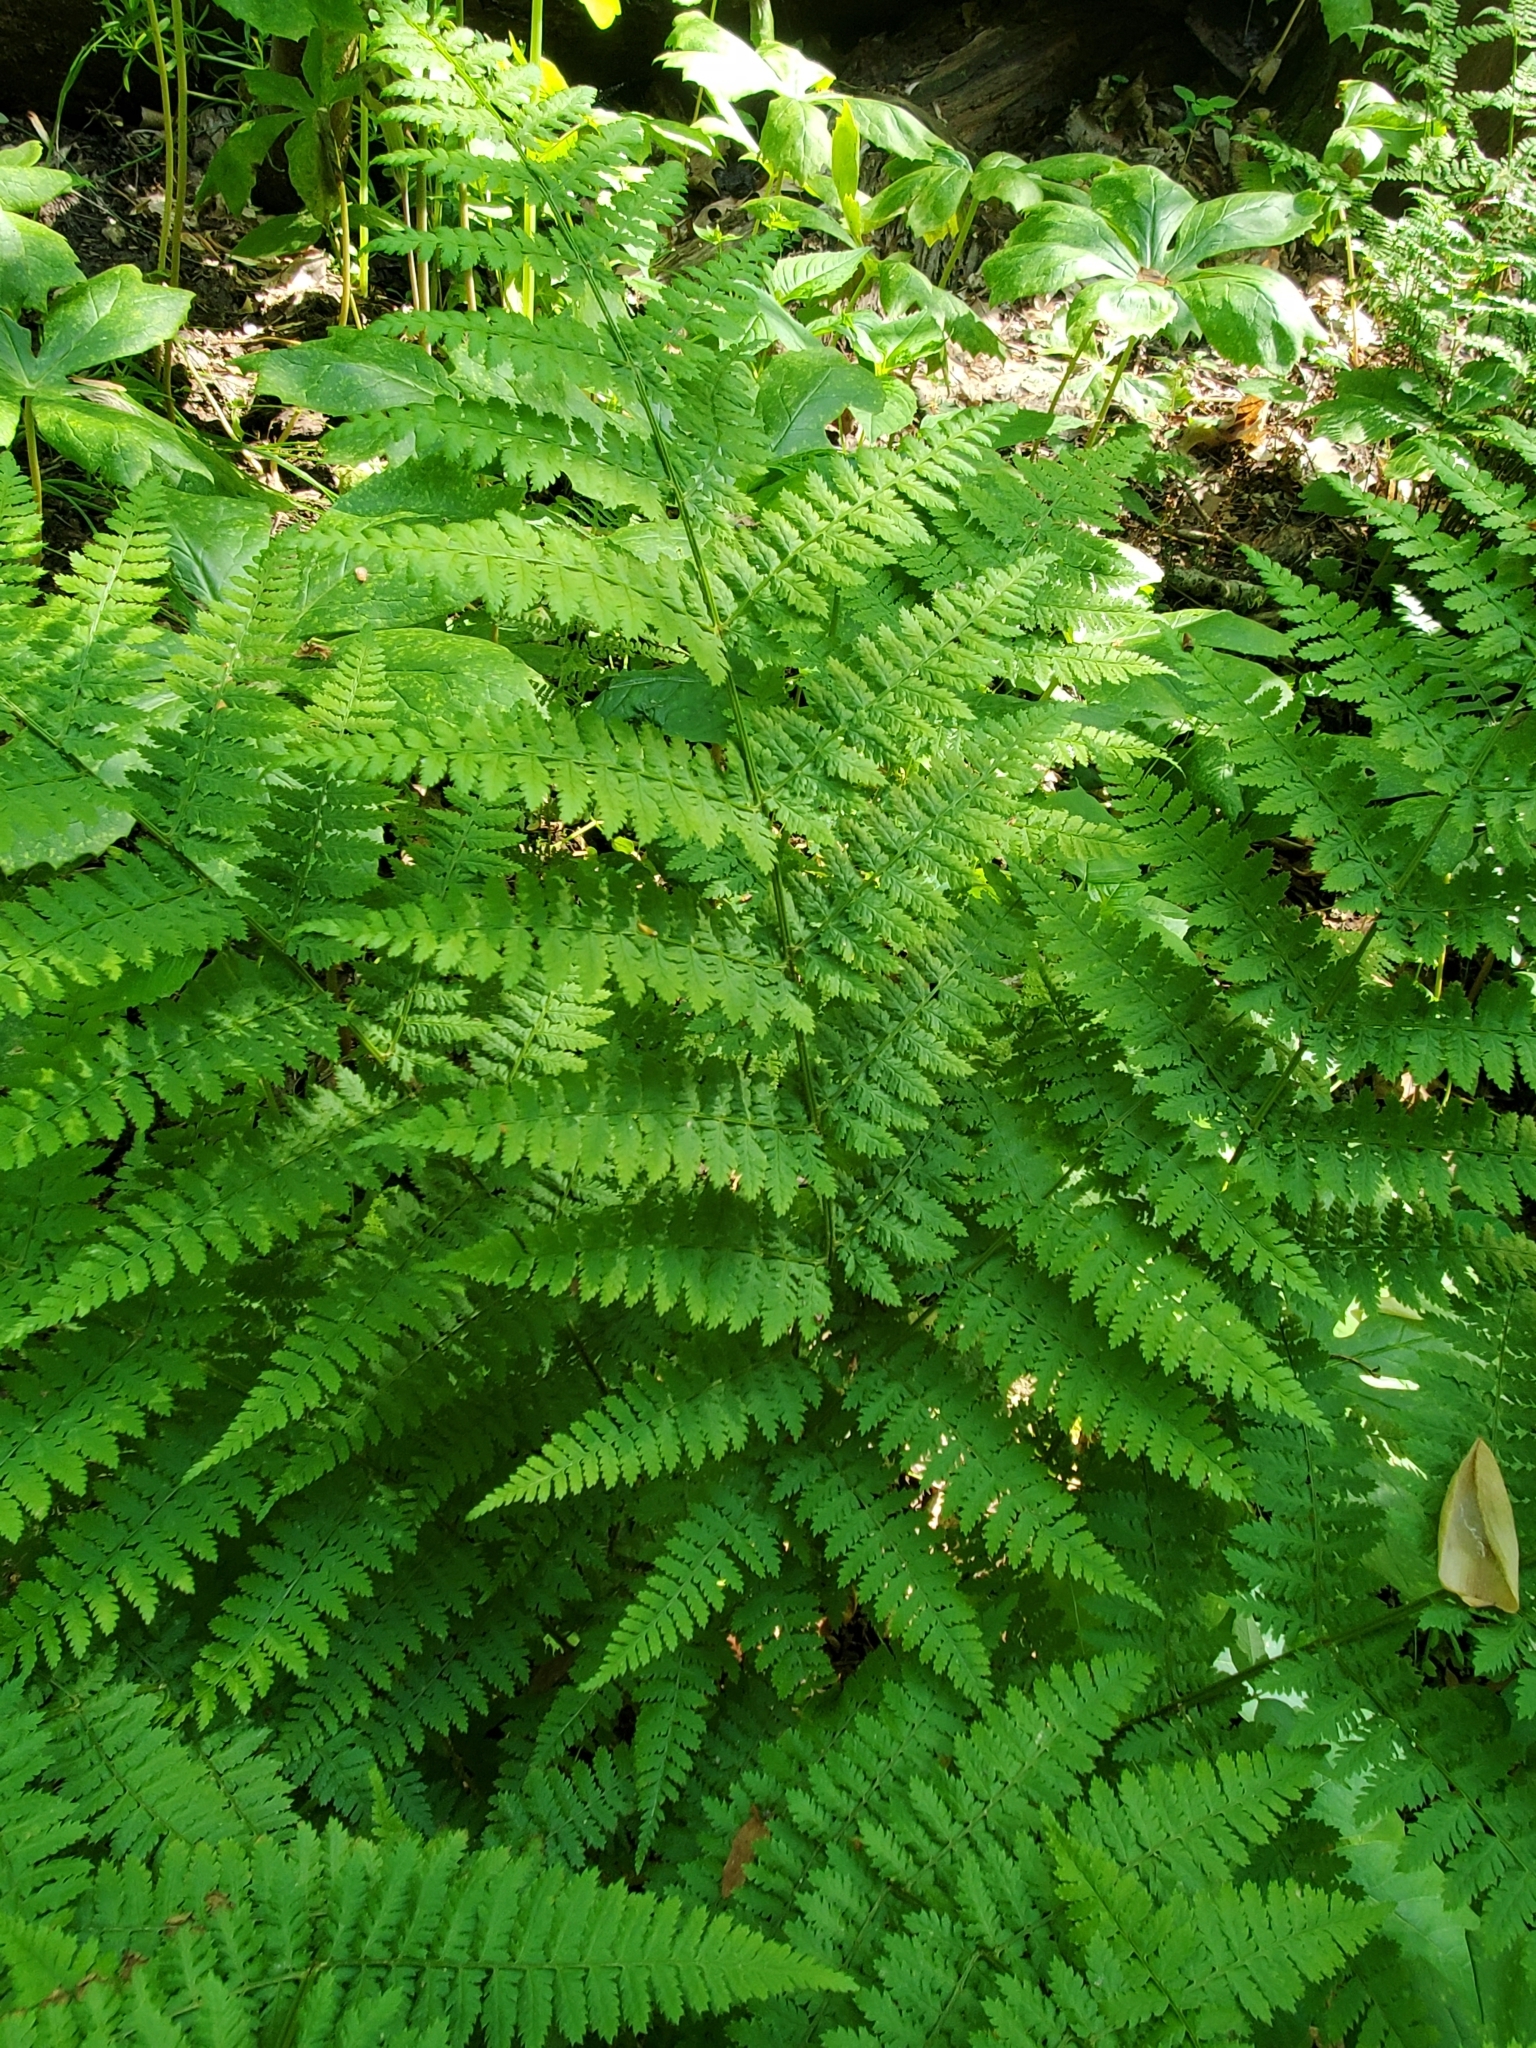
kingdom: Plantae
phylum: Tracheophyta
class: Polypodiopsida
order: Polypodiales
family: Dryopteridaceae
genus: Dryopteris
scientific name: Dryopteris intermedia
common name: Evergreen wood fern
